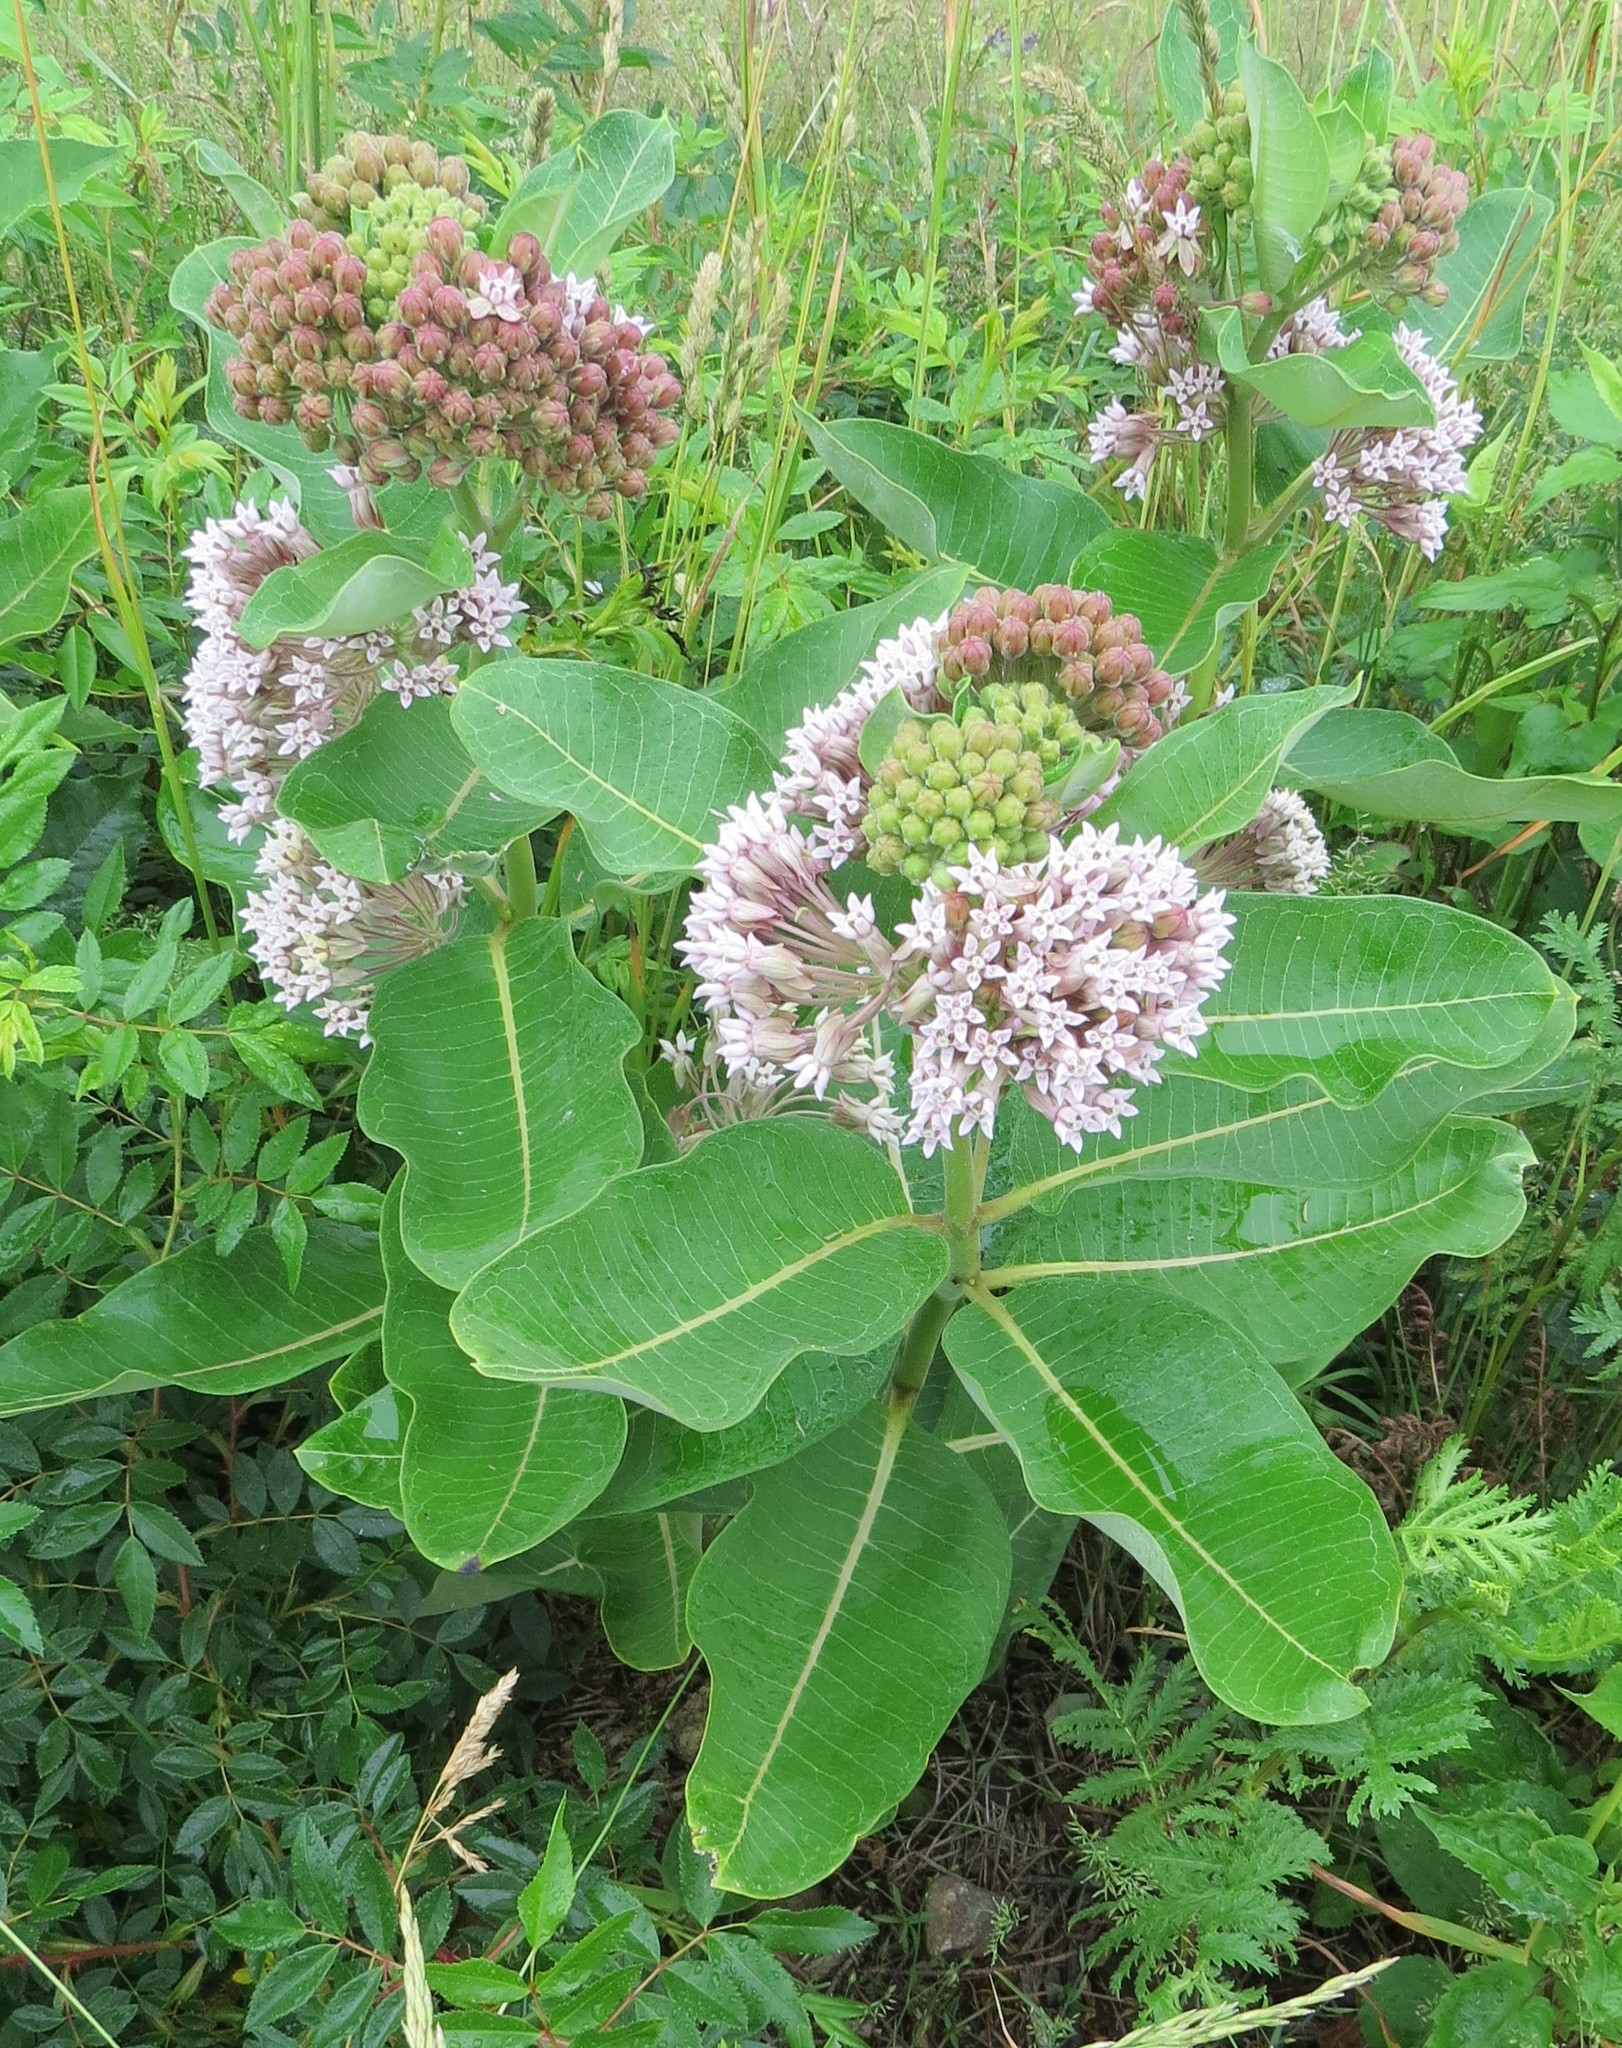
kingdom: Plantae
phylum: Tracheophyta
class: Magnoliopsida
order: Gentianales
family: Apocynaceae
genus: Asclepias
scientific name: Asclepias syriaca
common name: Common milkweed
